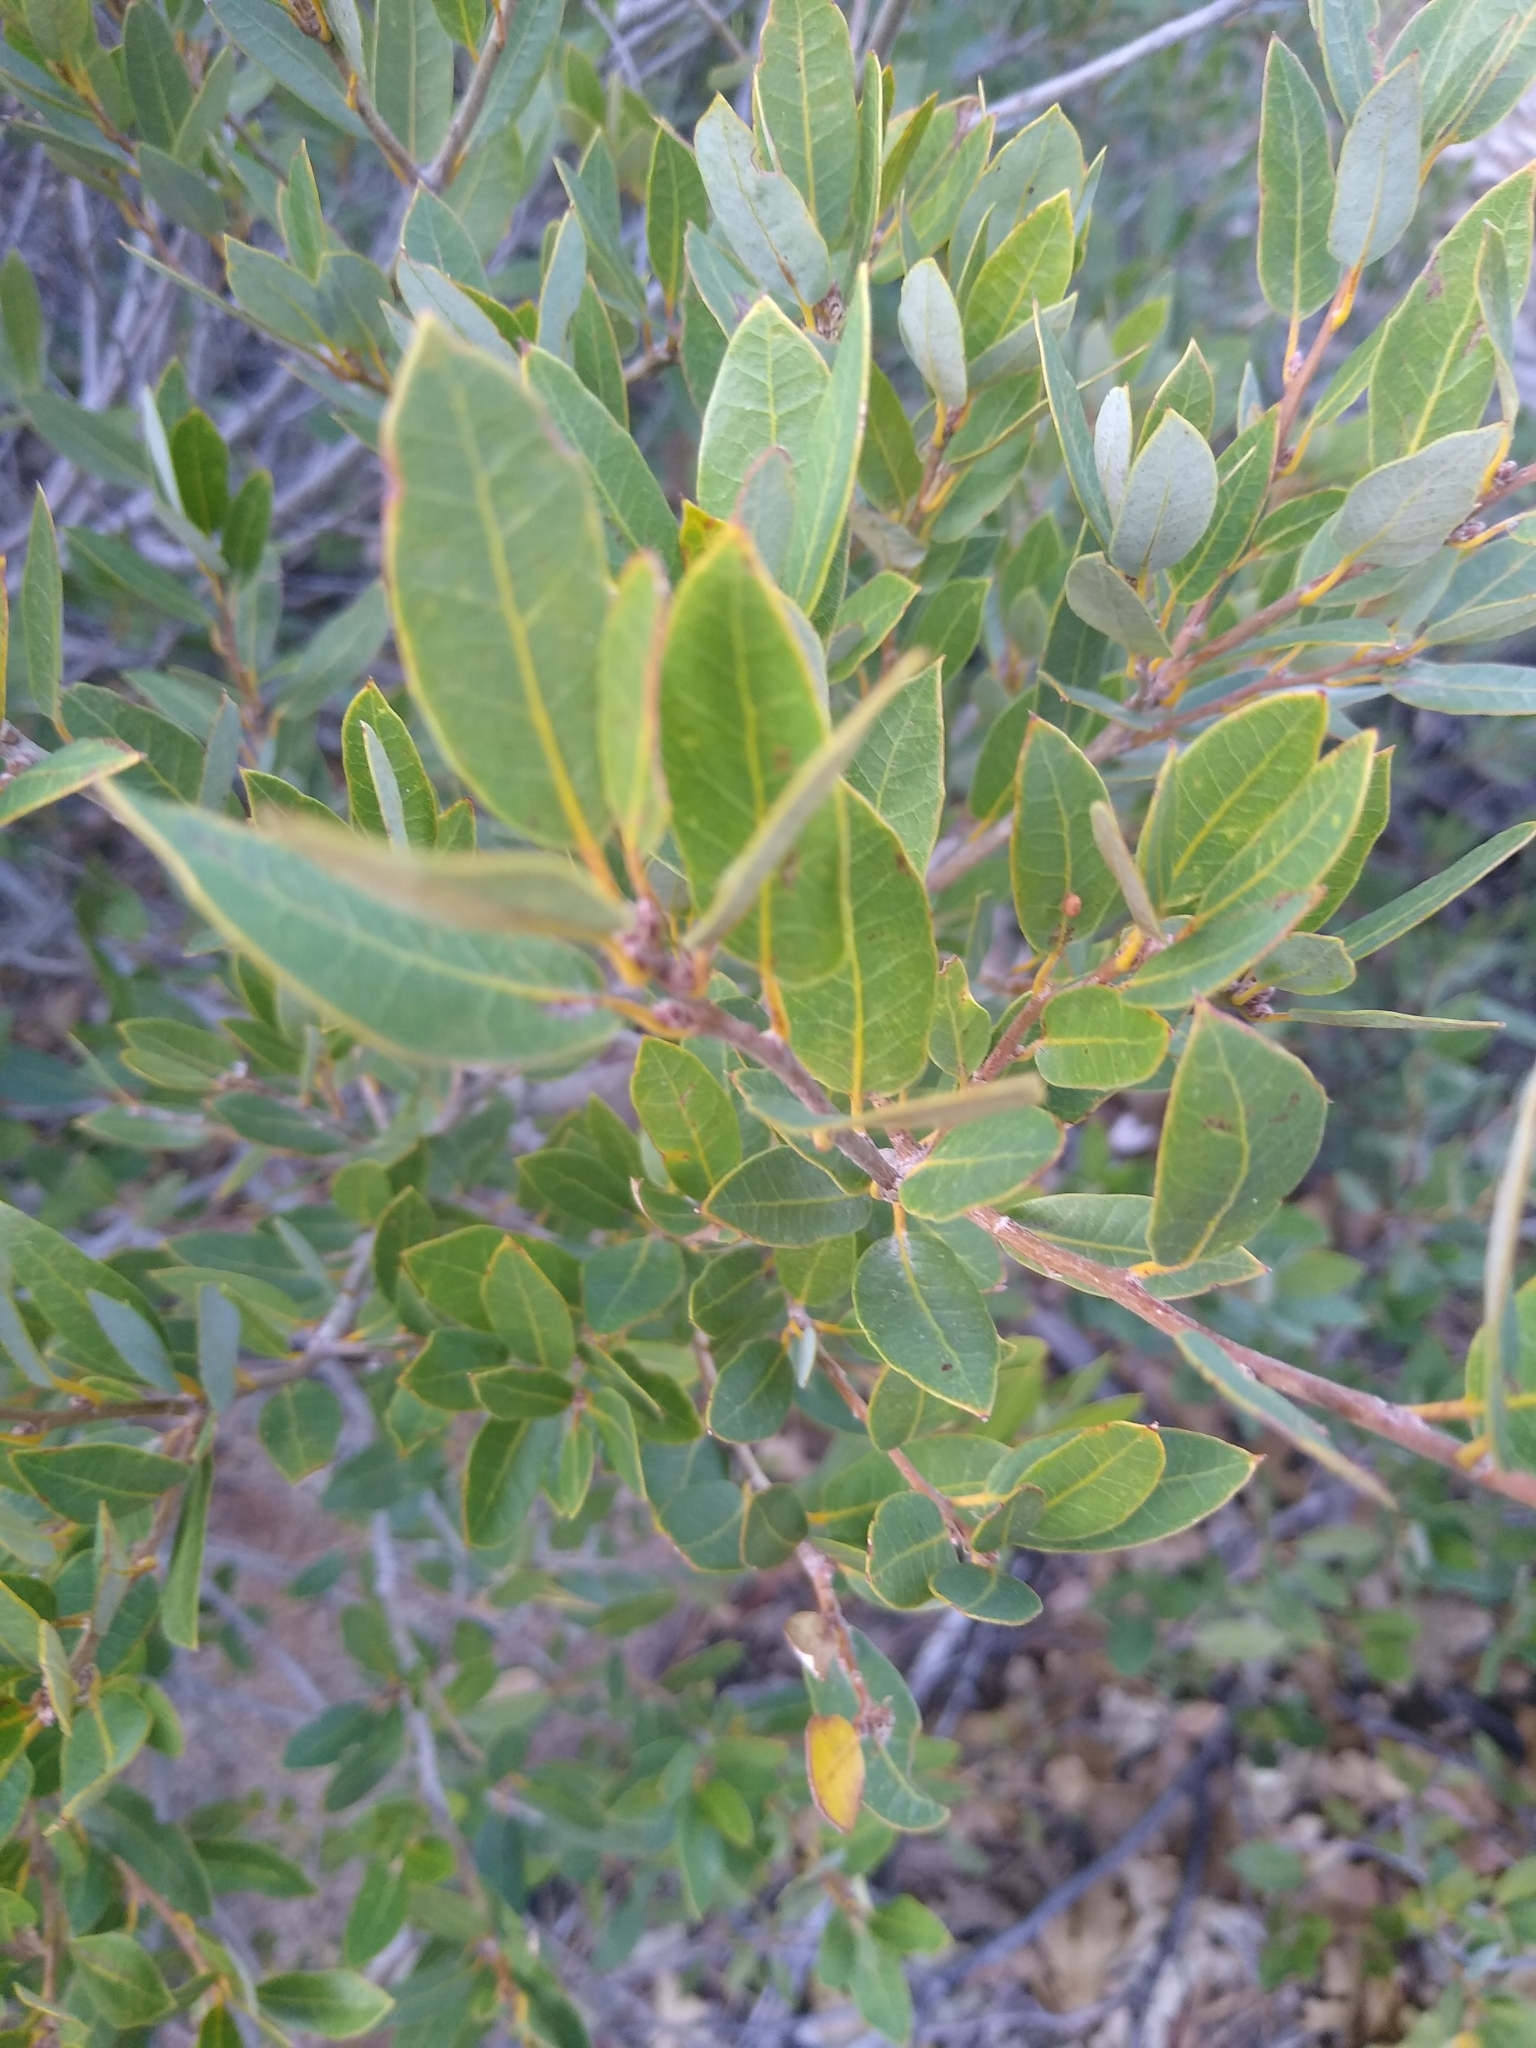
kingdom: Plantae
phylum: Tracheophyta
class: Magnoliopsida
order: Fagales
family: Fagaceae
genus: Quercus
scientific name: Quercus vacciniifolia
